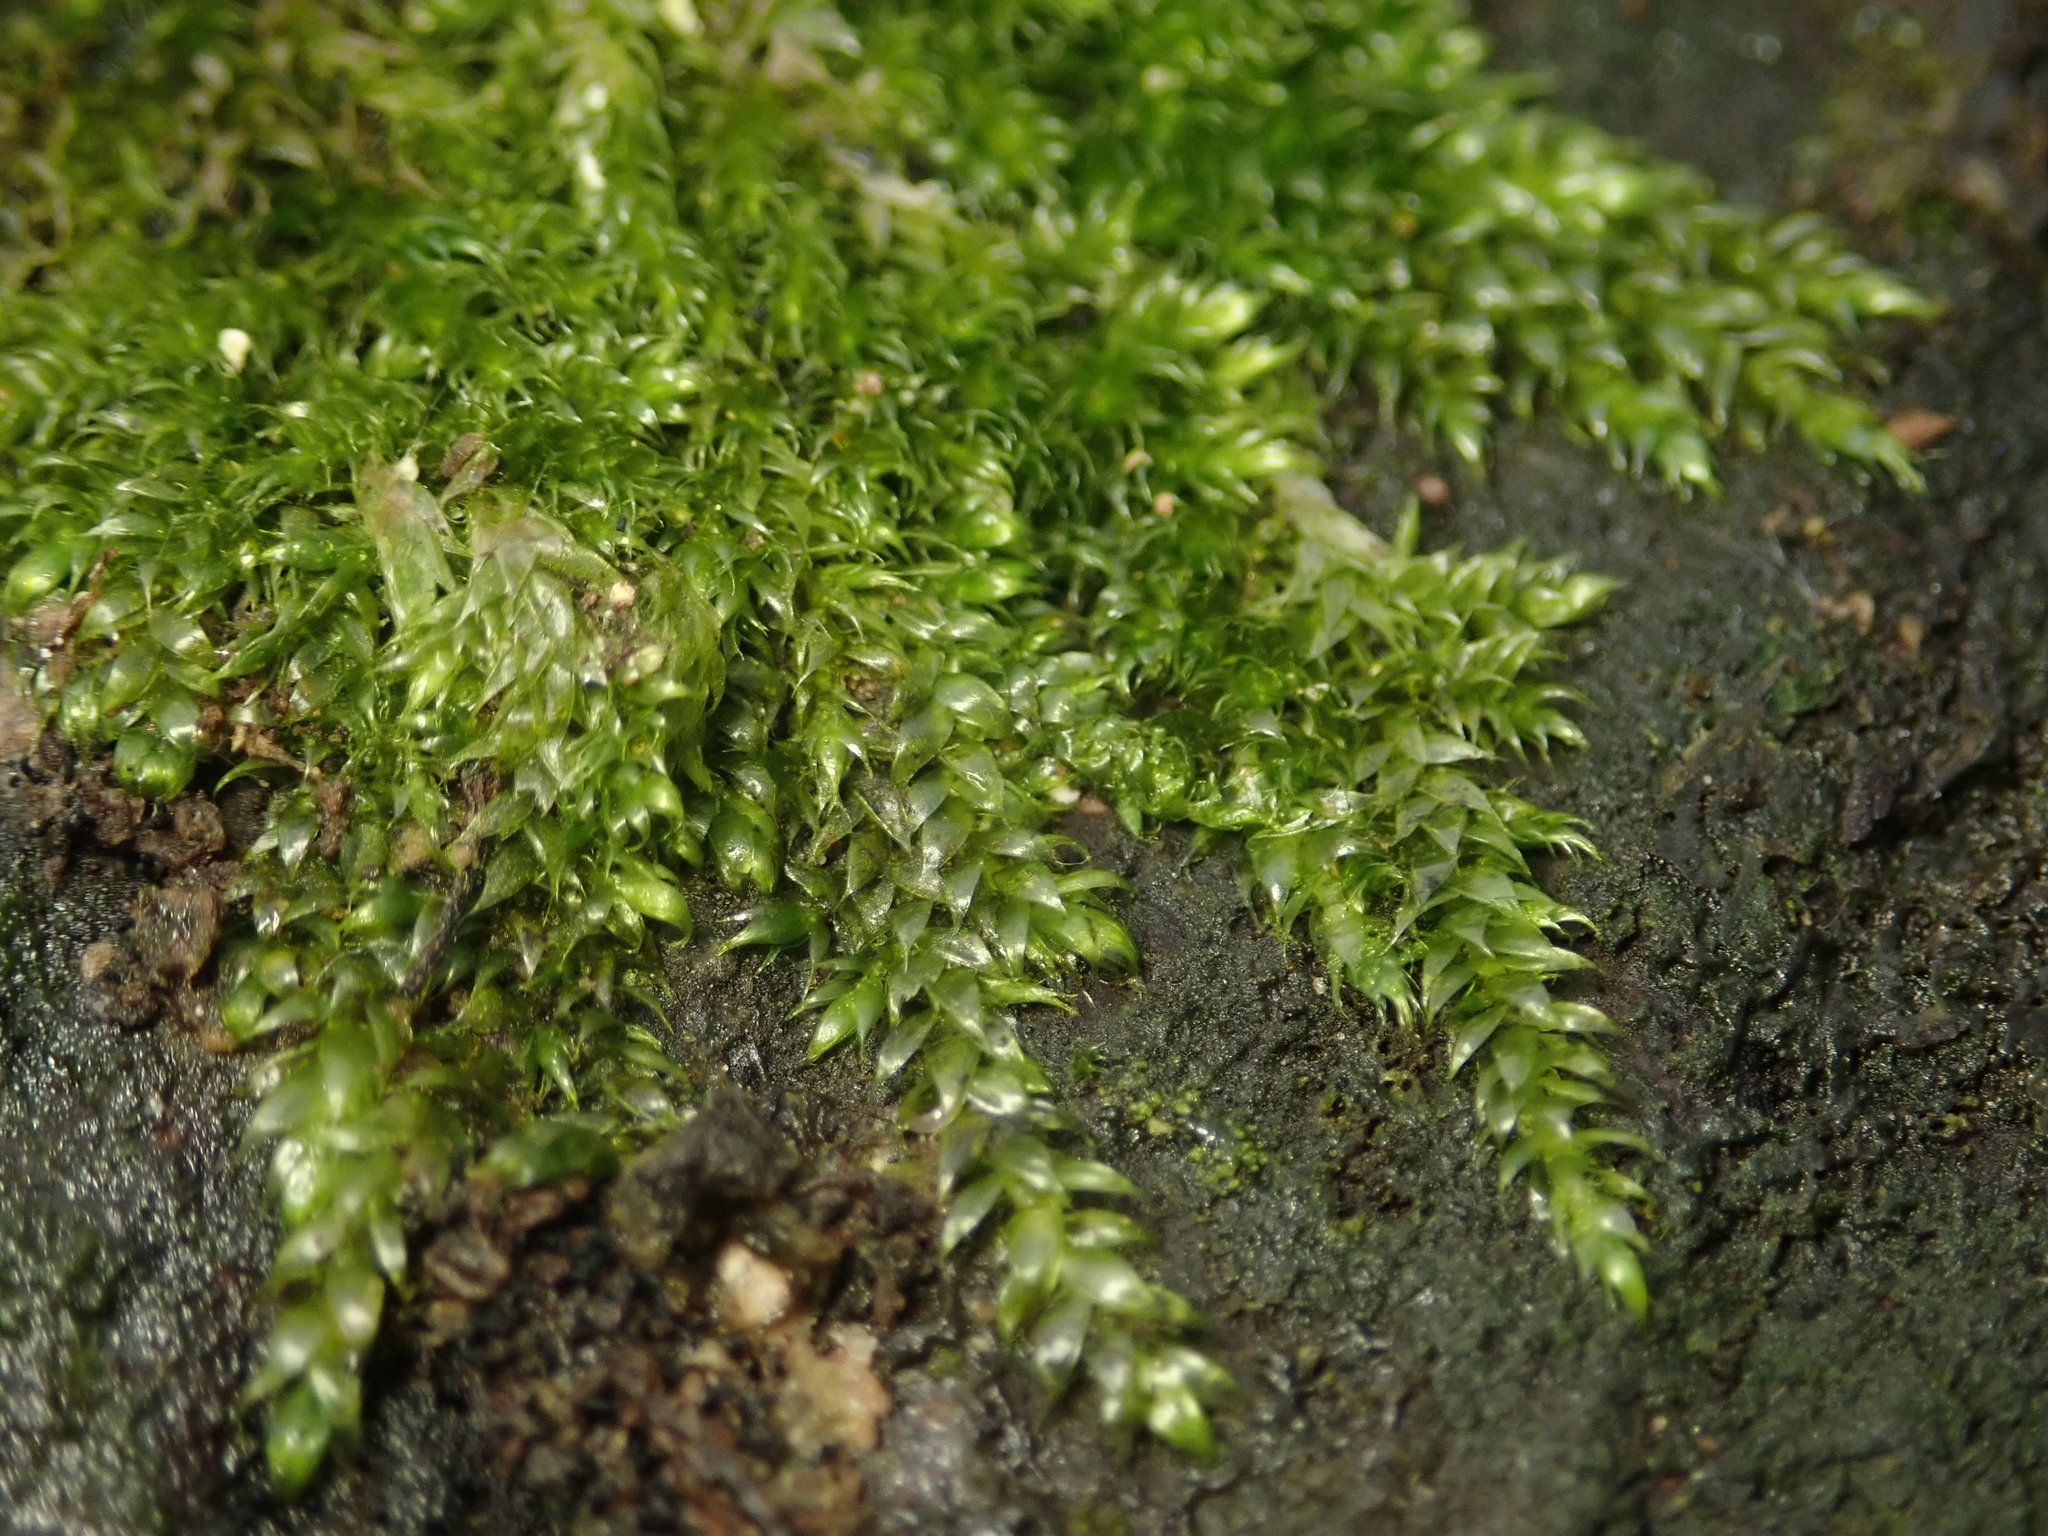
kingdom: Plantae
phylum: Bryophyta
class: Bryopsida
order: Hypnales
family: Hypnaceae
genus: Hypnum
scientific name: Hypnum cupressiforme
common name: Cypress-leaved plait-moss
